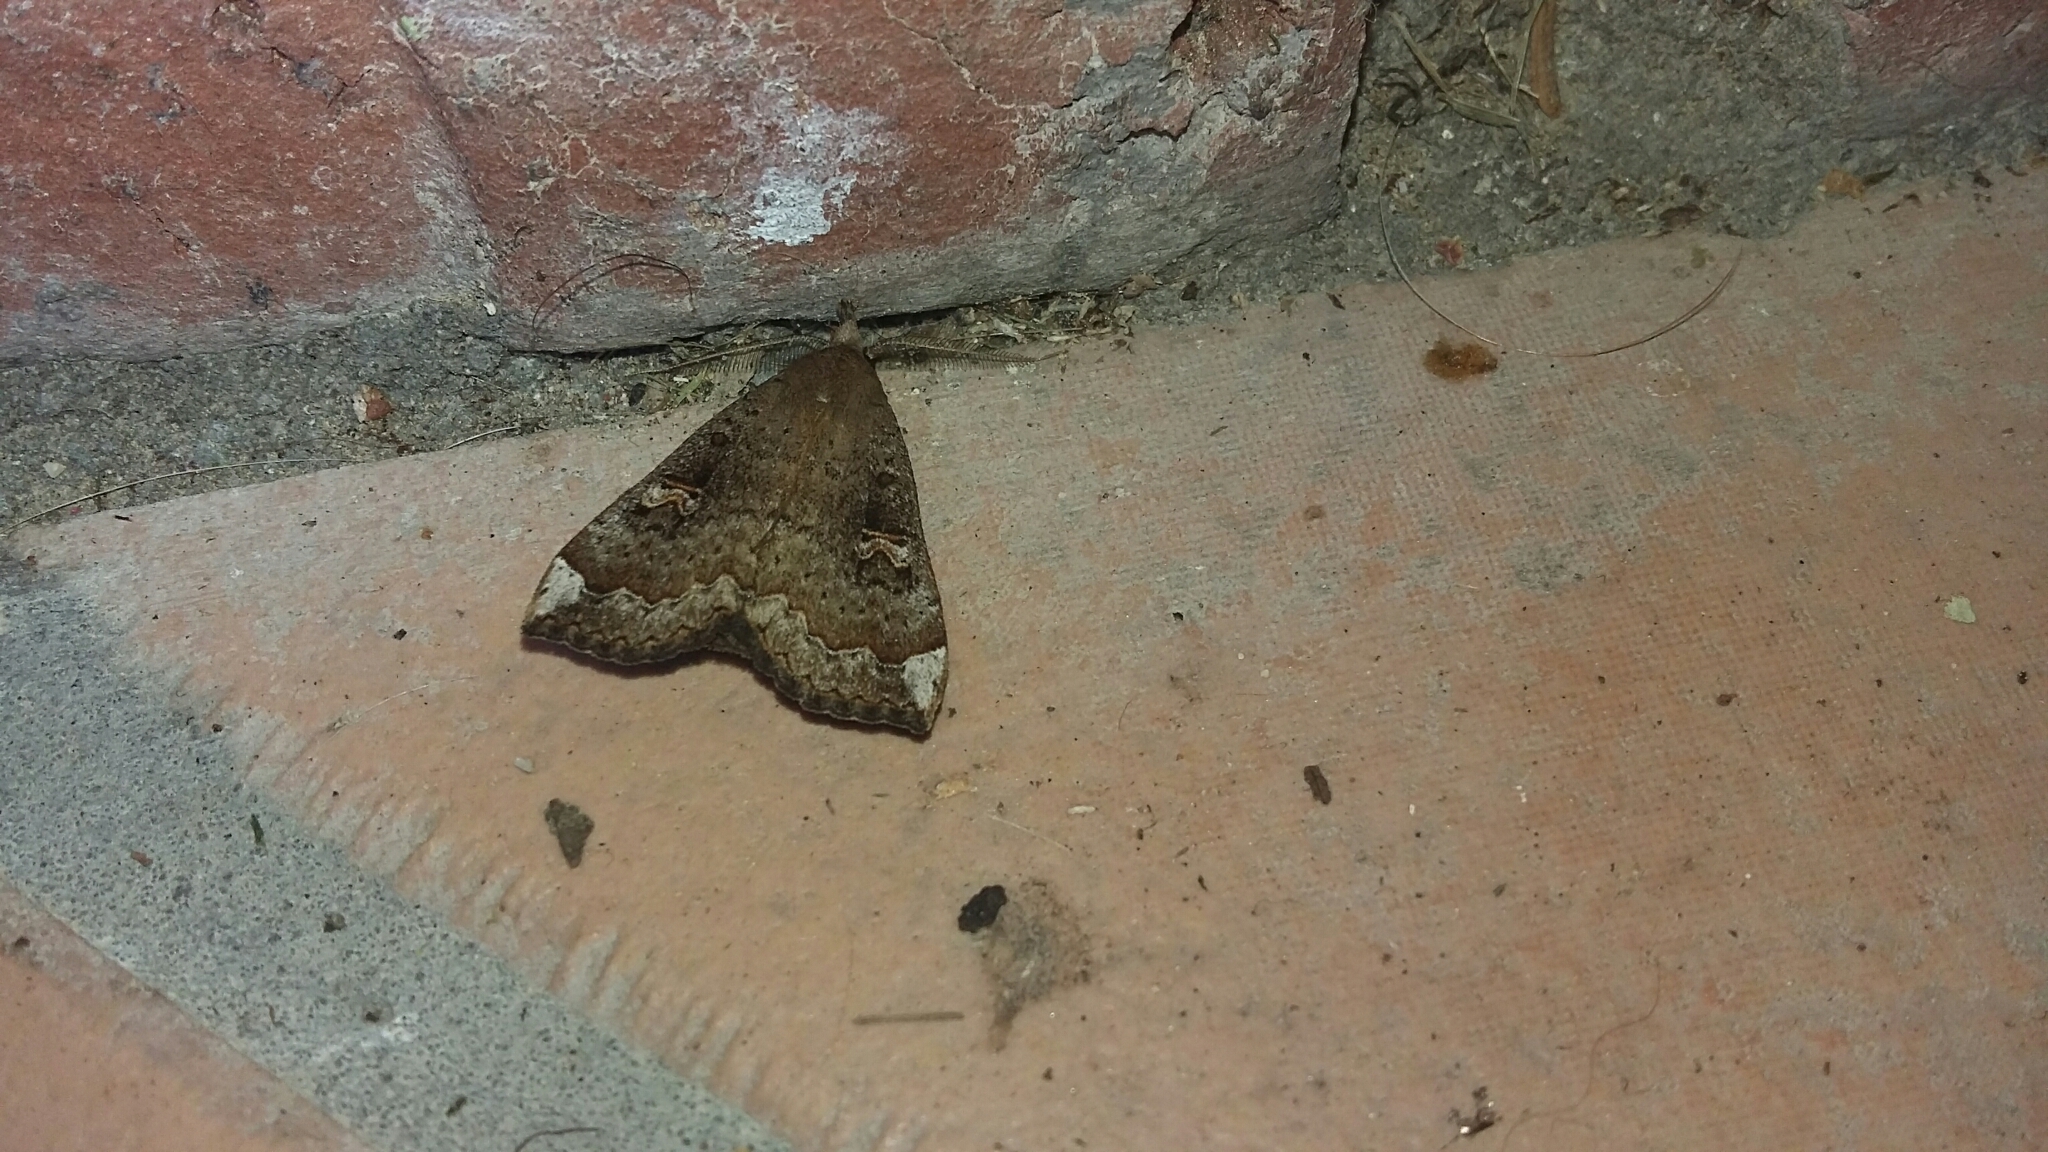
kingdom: Animalia
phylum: Arthropoda
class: Insecta
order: Lepidoptera
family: Erebidae
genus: Rhapsa
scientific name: Rhapsa scotosialis
